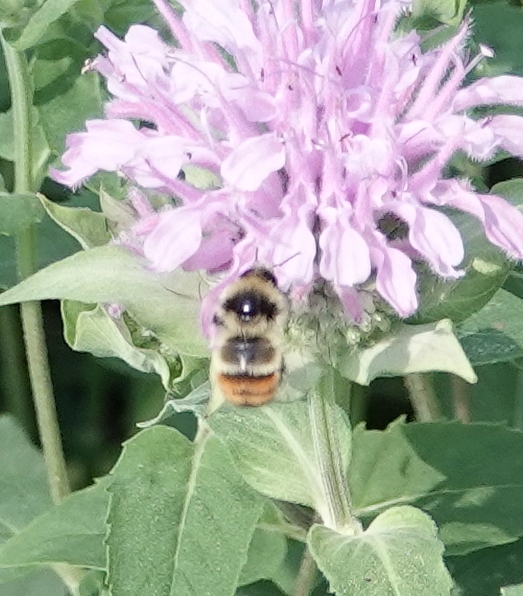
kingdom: Animalia
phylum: Arthropoda
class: Insecta
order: Hymenoptera
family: Apidae
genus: Bombus
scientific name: Bombus centralis
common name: Central bumble bee
